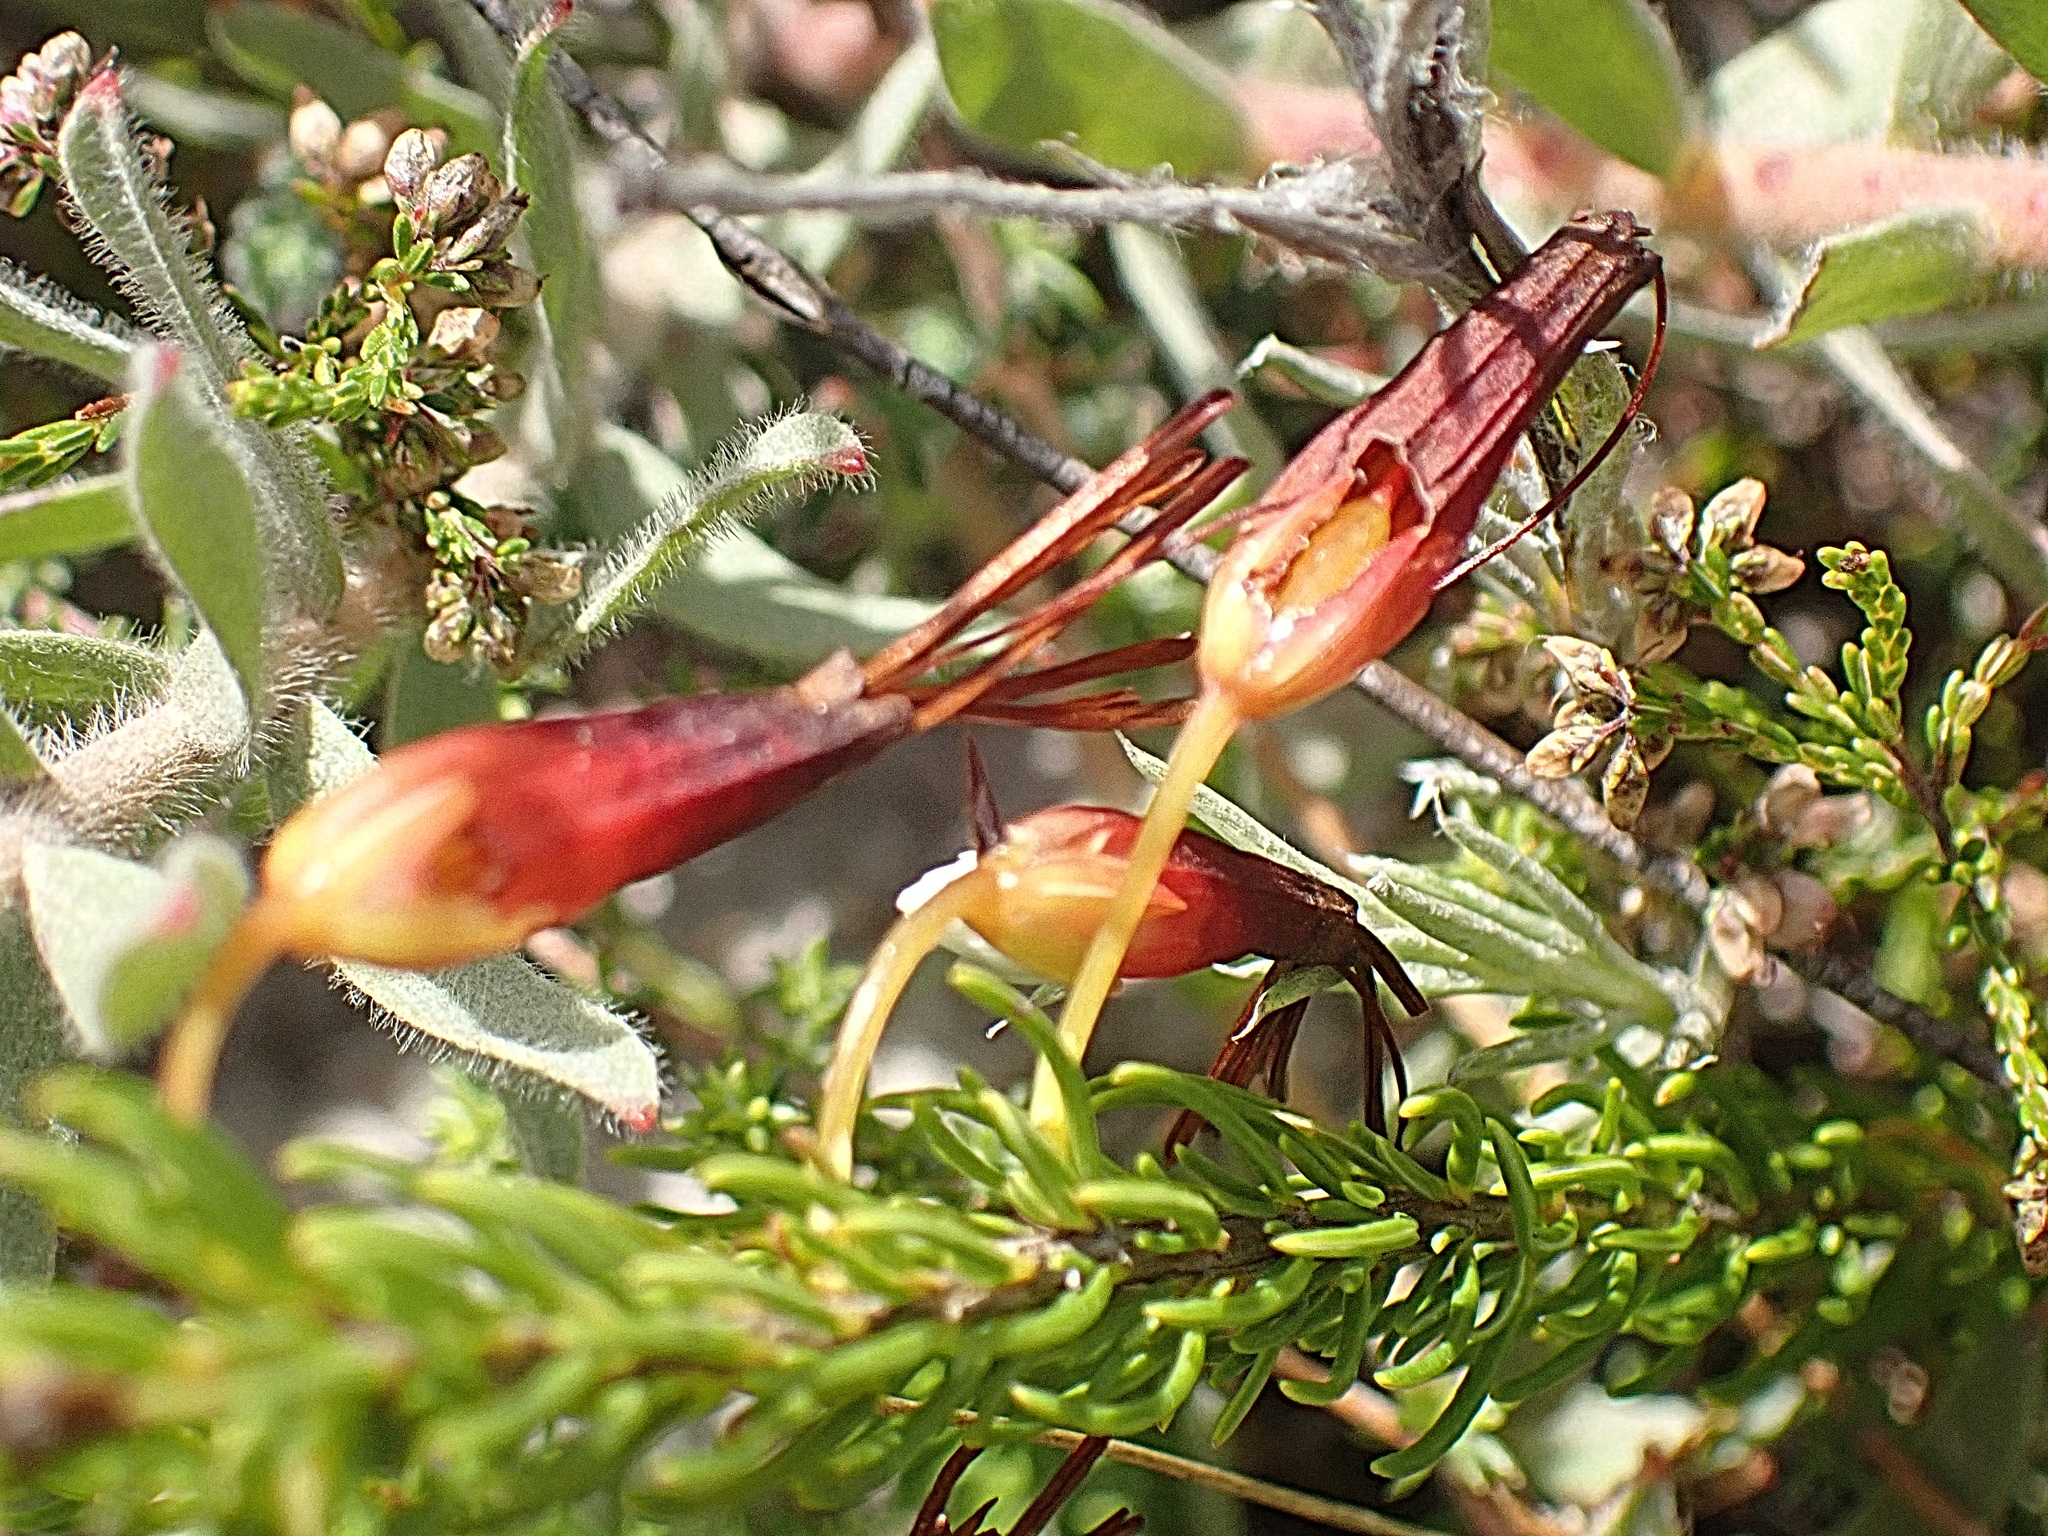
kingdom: Plantae
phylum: Tracheophyta
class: Magnoliopsida
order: Ericales
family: Ericaceae
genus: Erica
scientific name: Erica plukenetii
